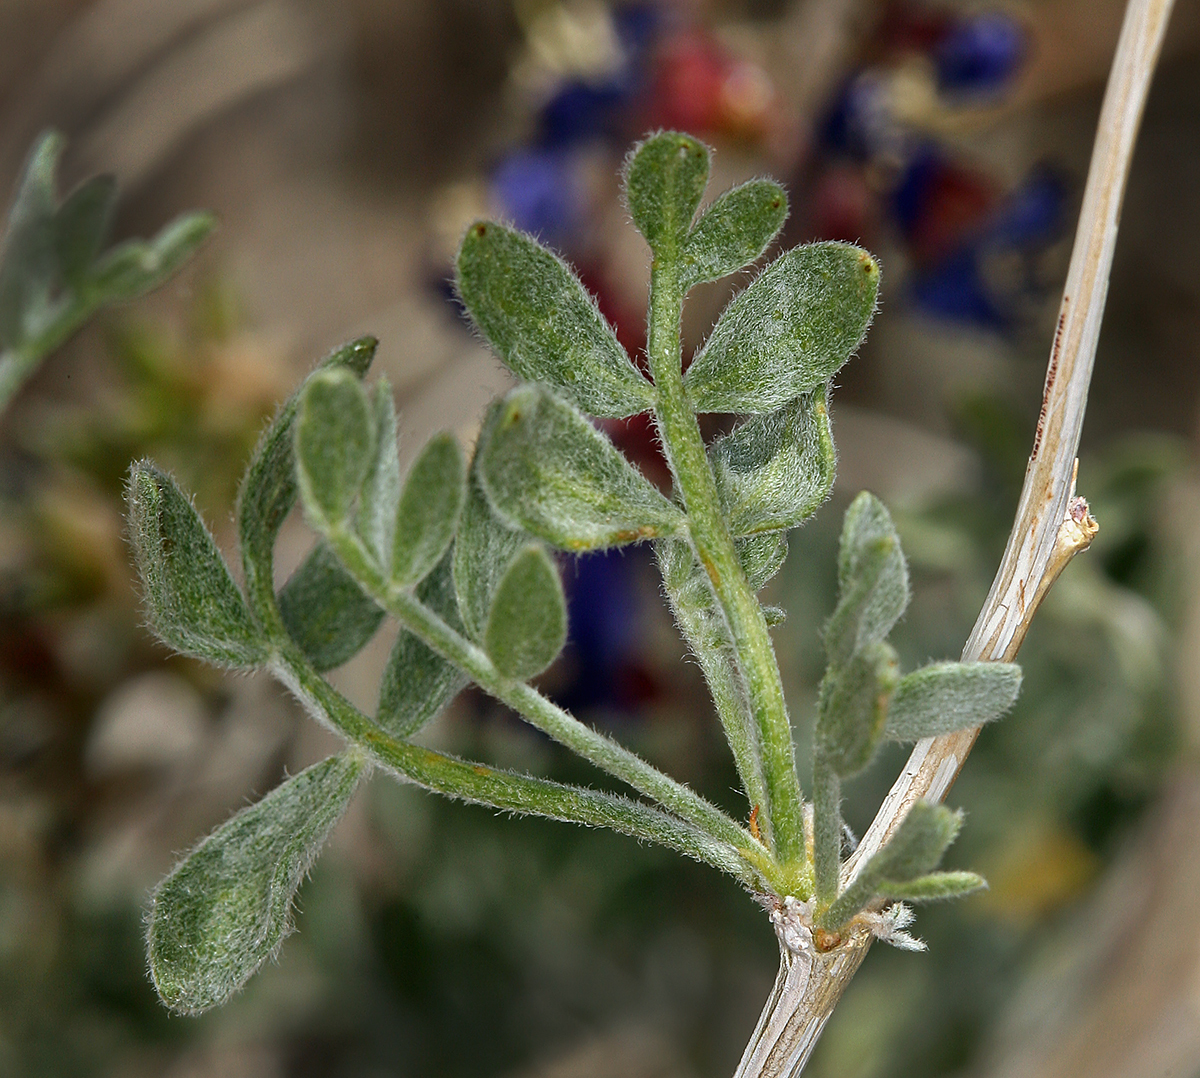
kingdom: Plantae
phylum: Tracheophyta
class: Magnoliopsida
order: Fabales
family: Fabaceae
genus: Psorothamnus
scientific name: Psorothamnus arborescens
